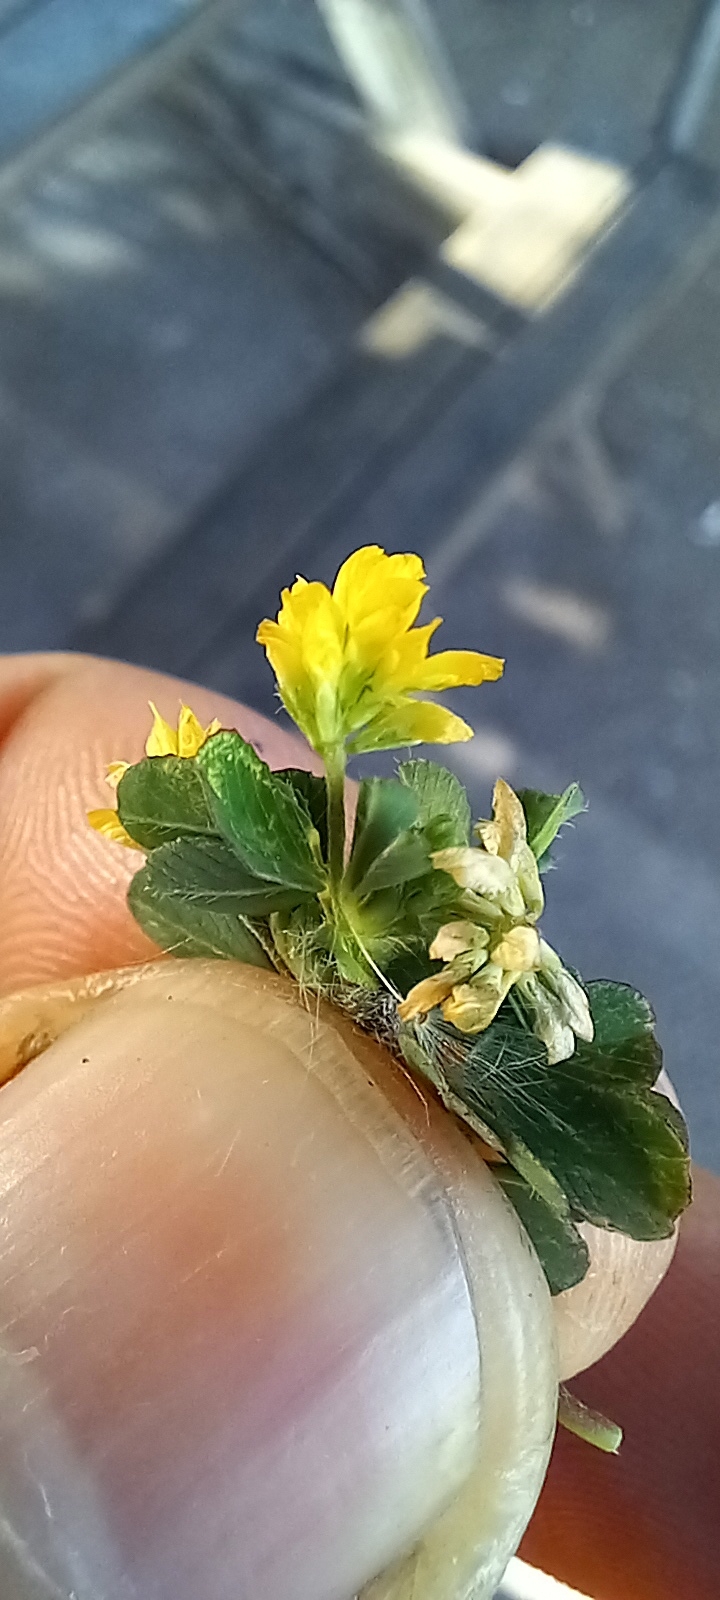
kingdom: Plantae
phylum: Tracheophyta
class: Magnoliopsida
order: Fabales
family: Fabaceae
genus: Trifolium
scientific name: Trifolium dubium
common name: Suckling clover
